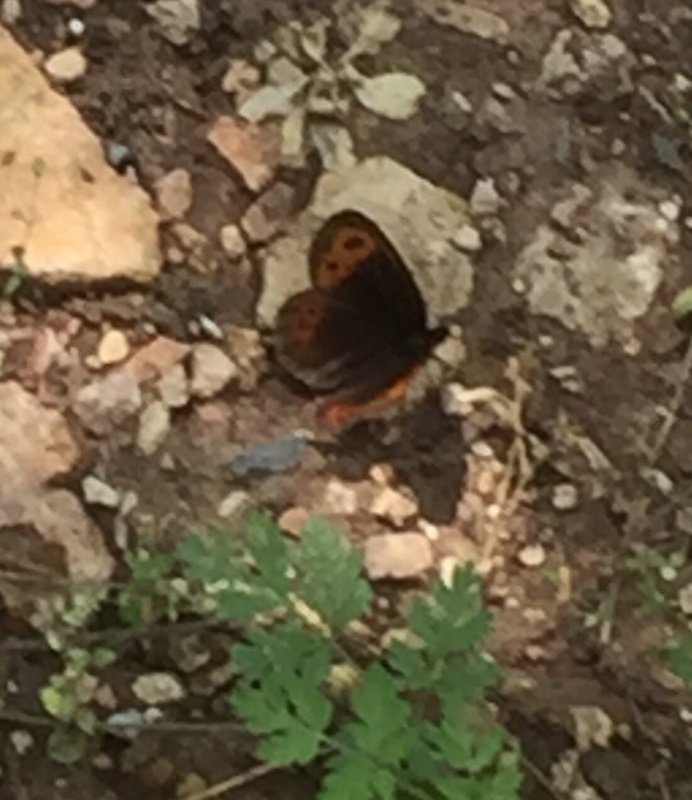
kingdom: Animalia
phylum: Arthropoda
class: Insecta
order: Lepidoptera
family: Nymphalidae
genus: Erebia
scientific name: Erebia aethiops
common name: Scotch argus
